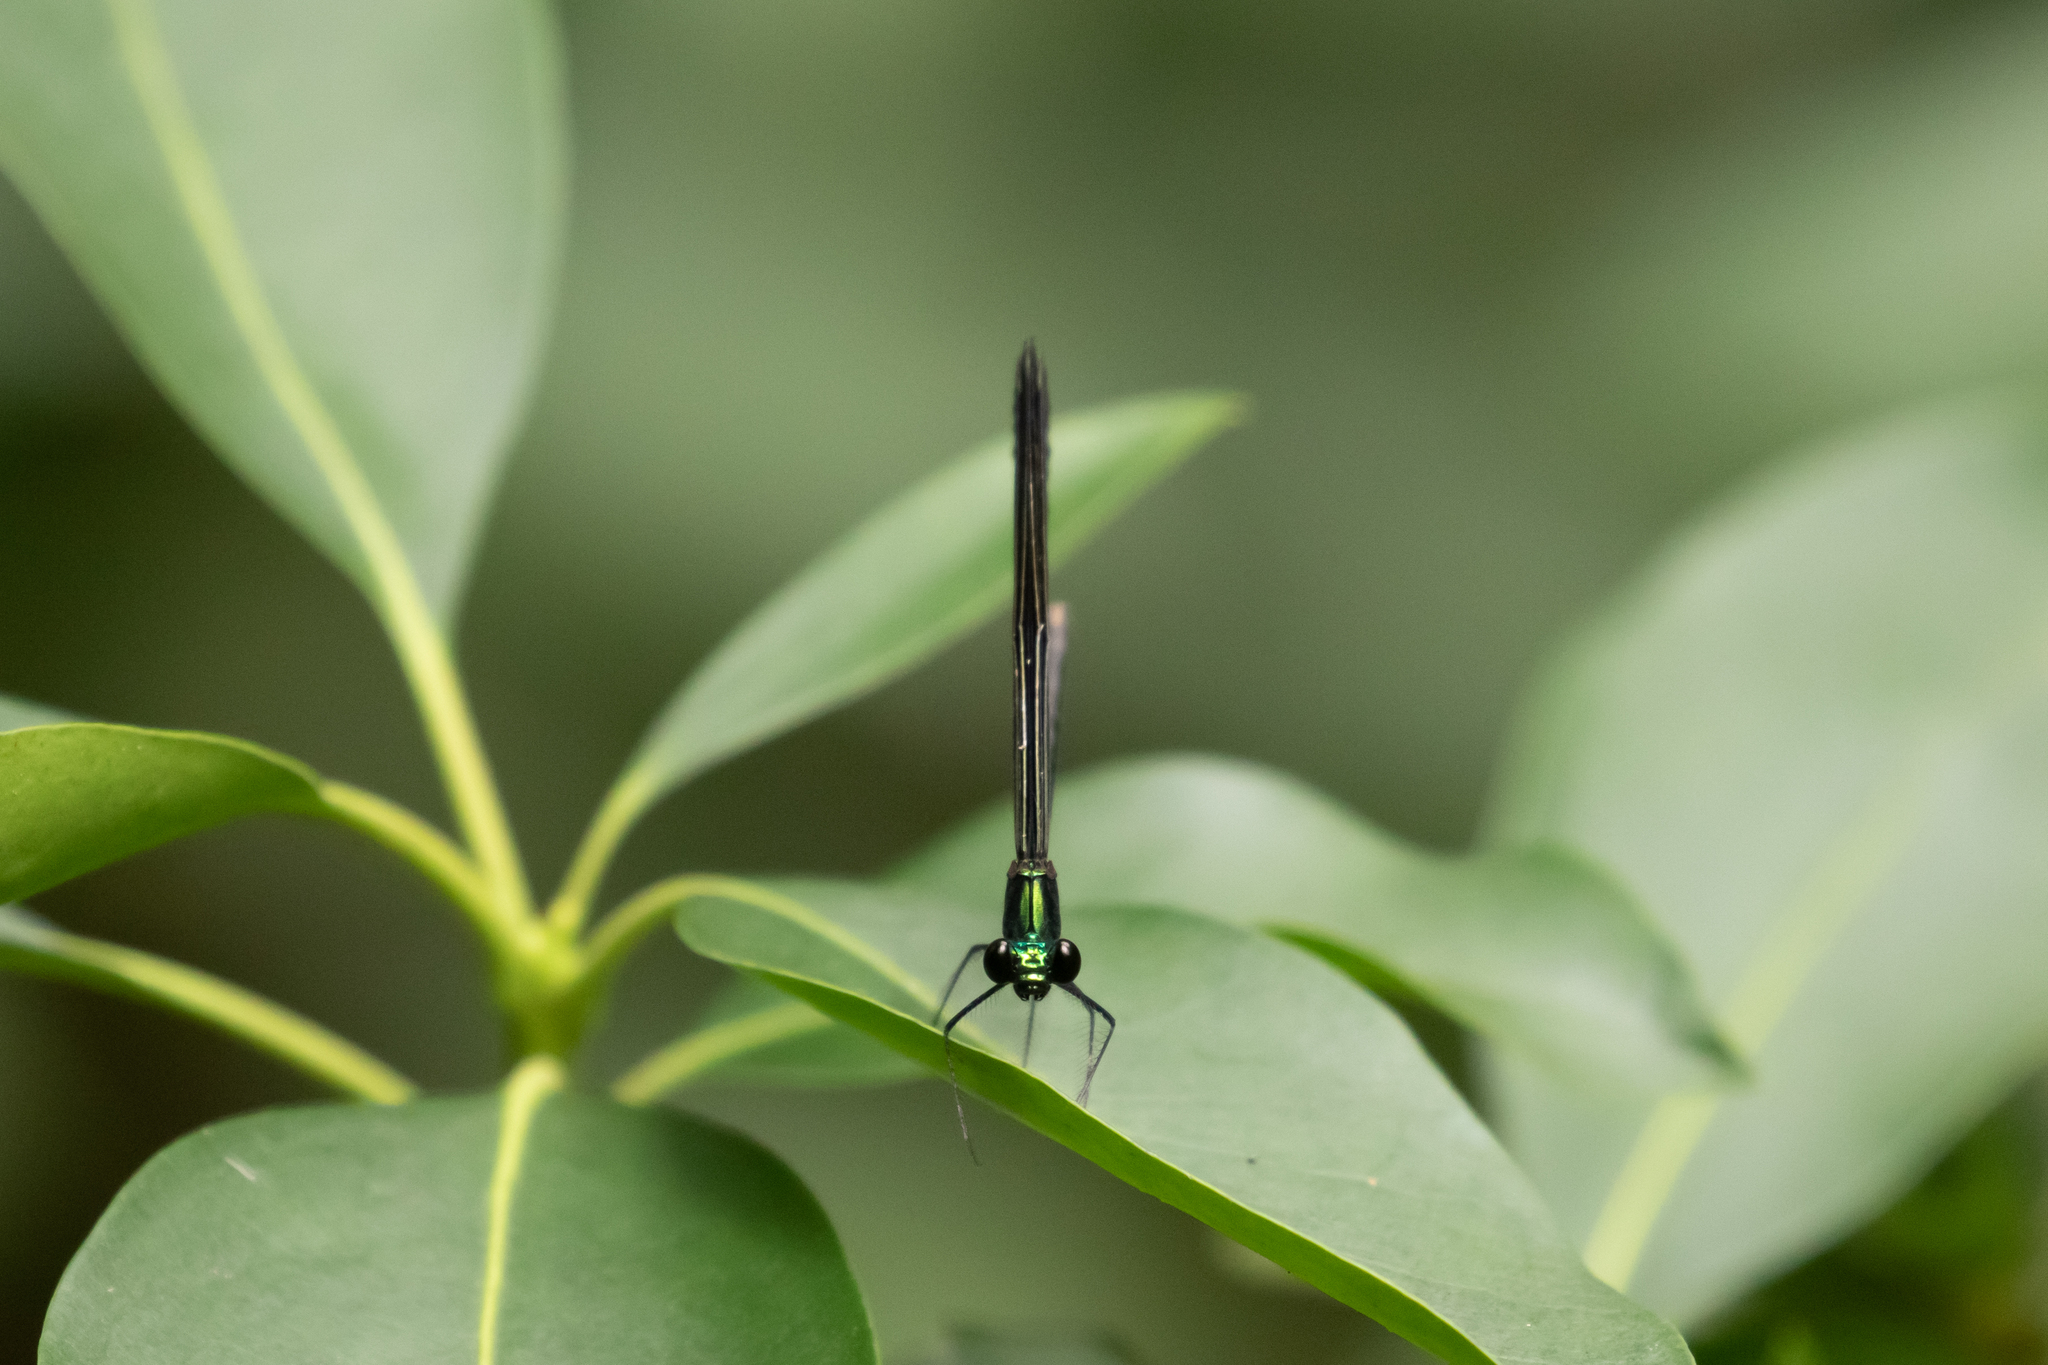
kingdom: Animalia
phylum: Arthropoda
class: Insecta
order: Odonata
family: Calopterygidae
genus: Calopteryx
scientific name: Calopteryx maculata
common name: Ebony jewelwing
